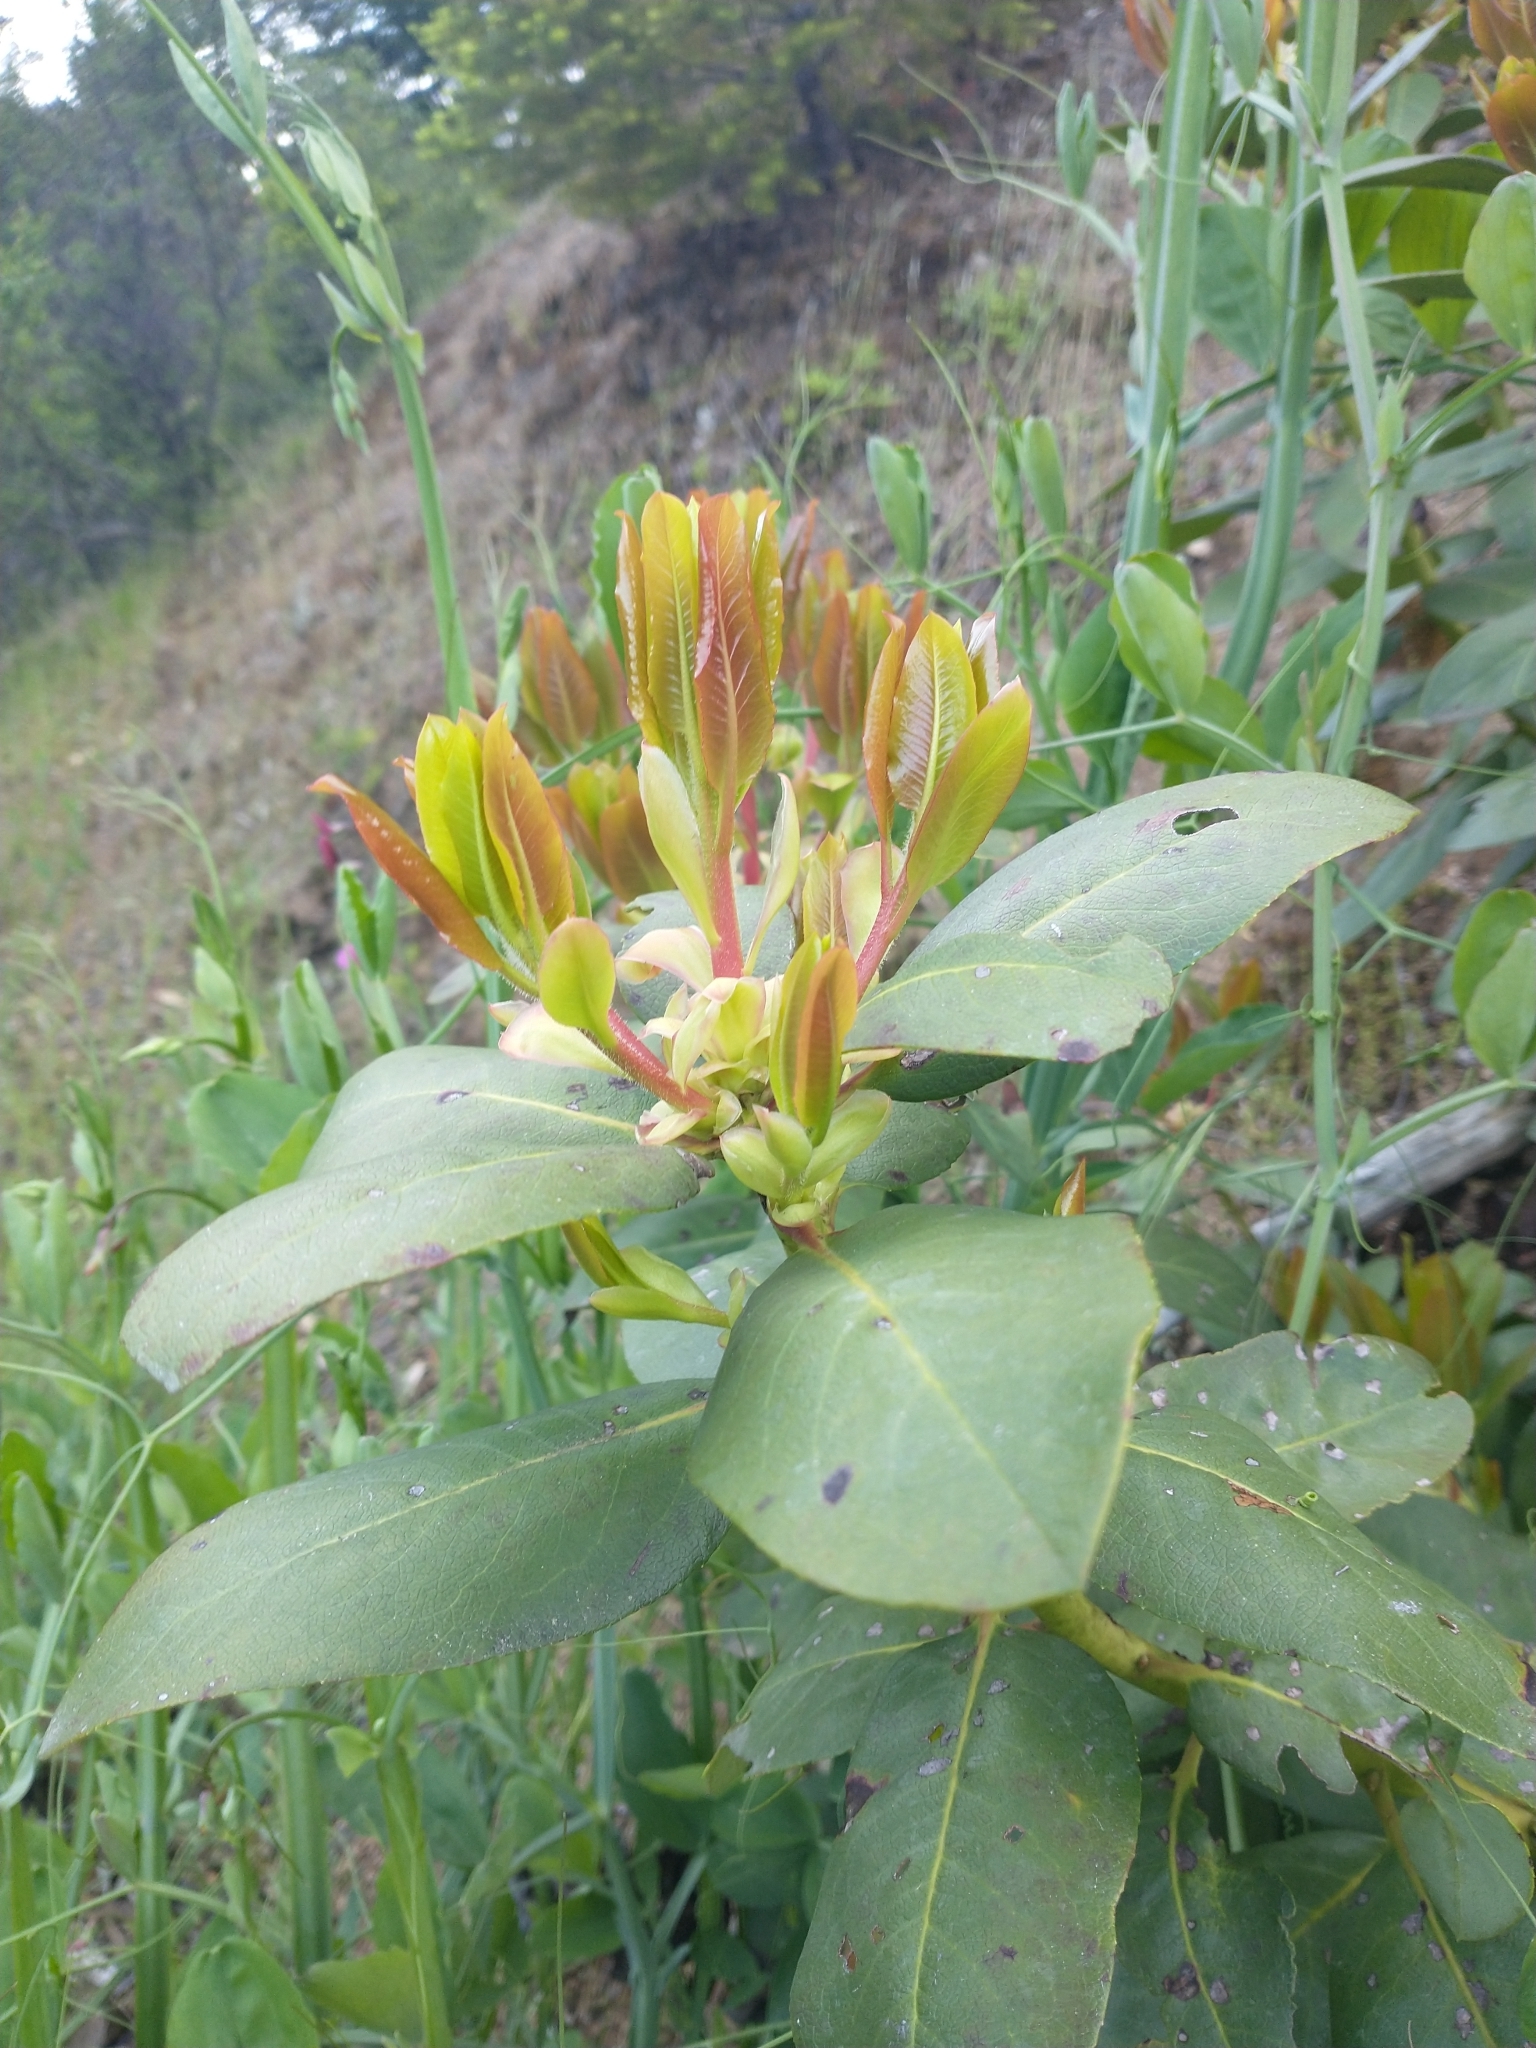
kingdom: Plantae
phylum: Tracheophyta
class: Magnoliopsida
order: Ericales
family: Ericaceae
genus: Arbutus
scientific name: Arbutus menziesii
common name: Pacific madrone
